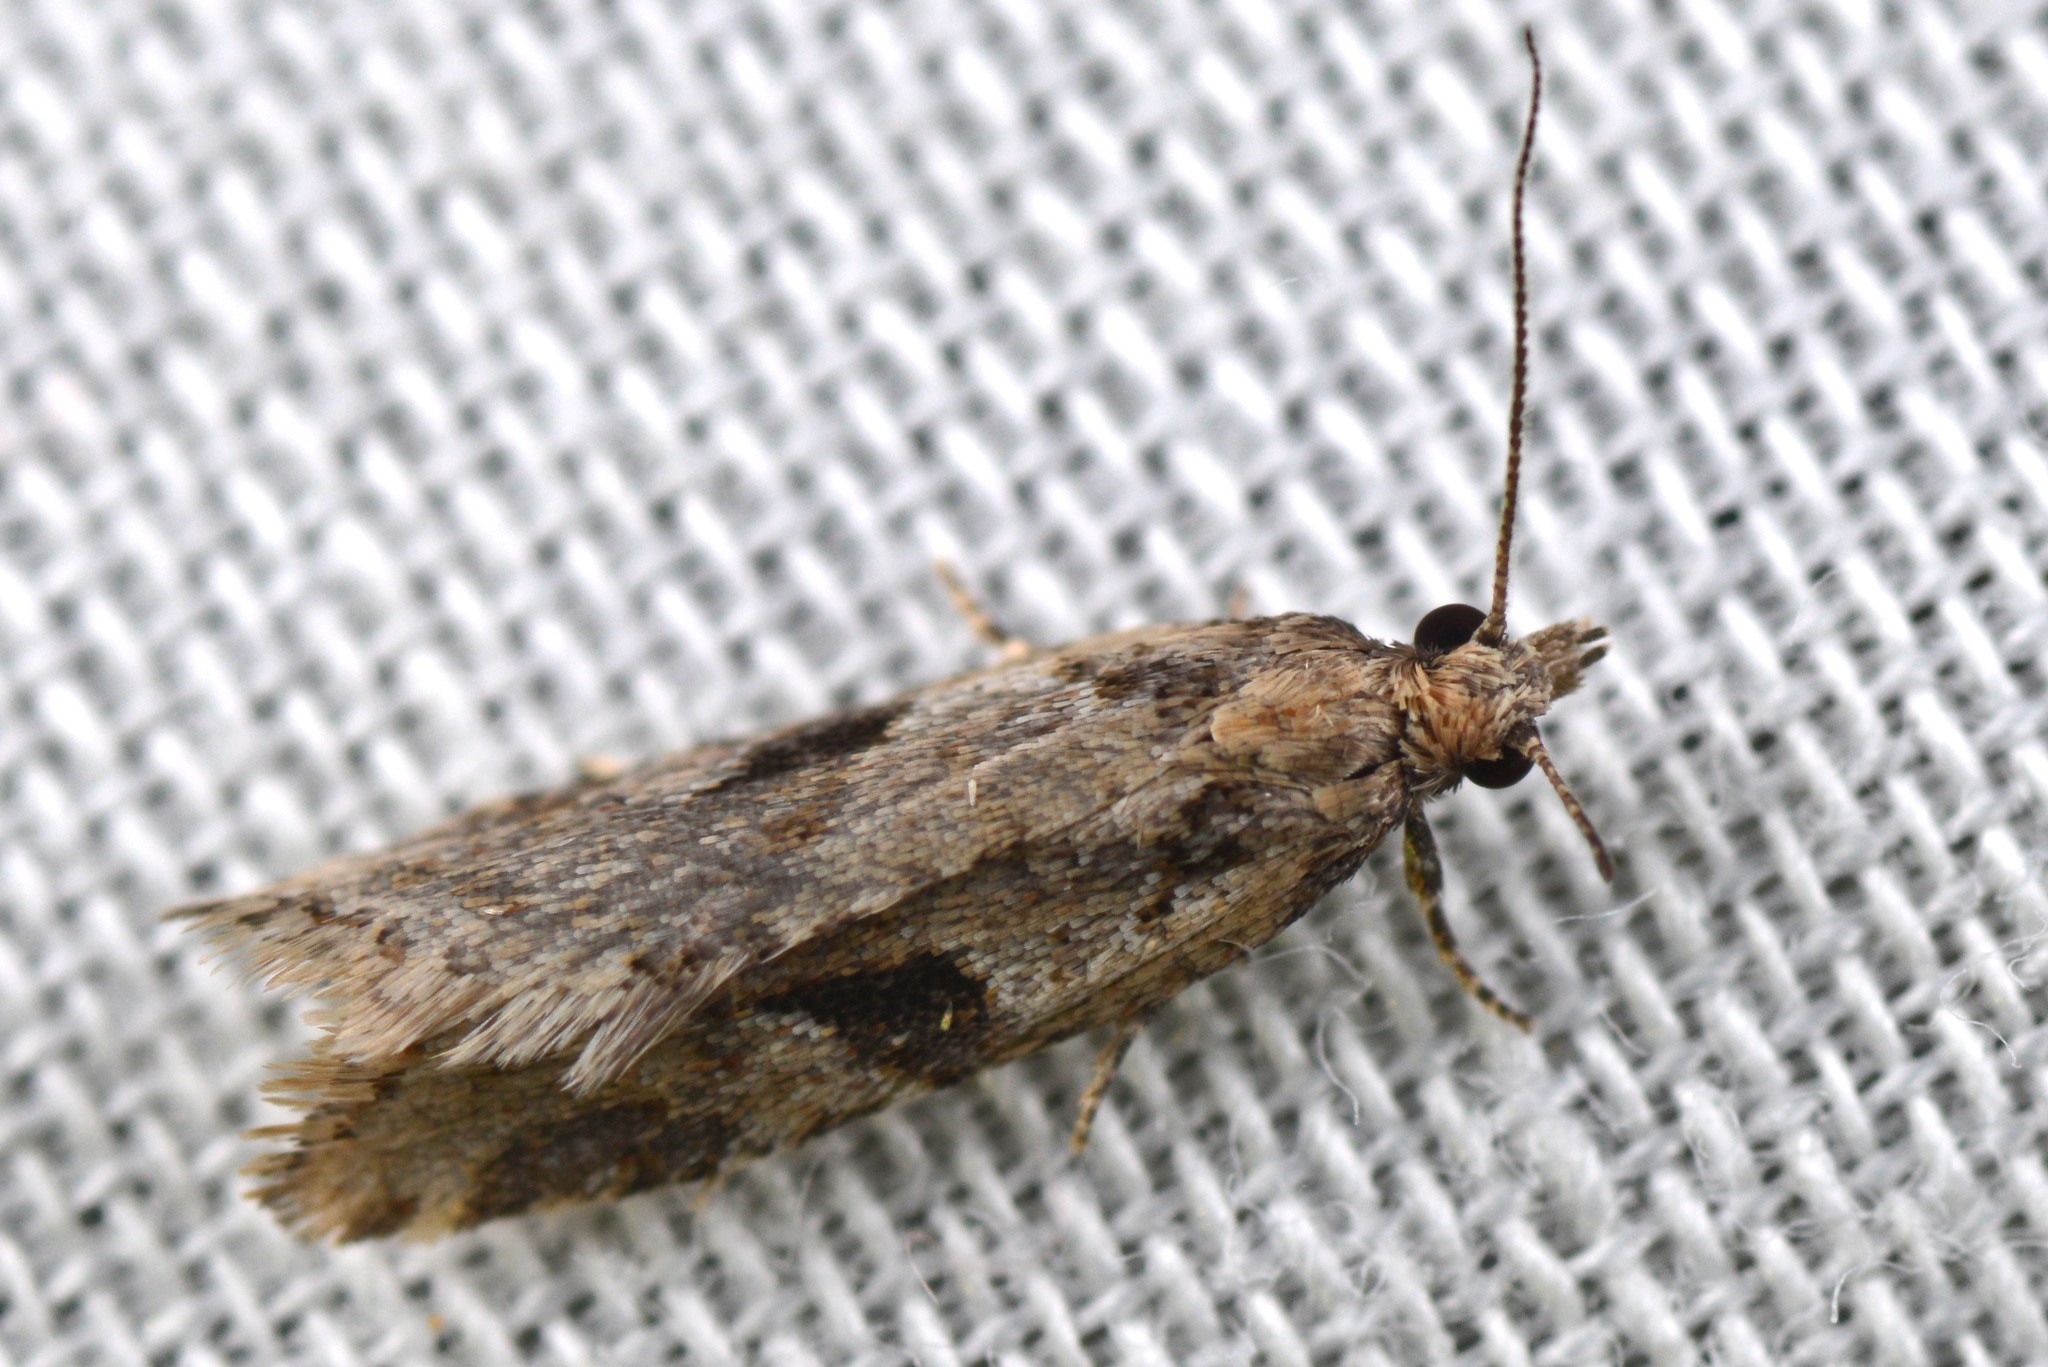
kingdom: Animalia
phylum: Arthropoda
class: Insecta
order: Lepidoptera
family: Tortricidae
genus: Capua
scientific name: Capua semiferana
